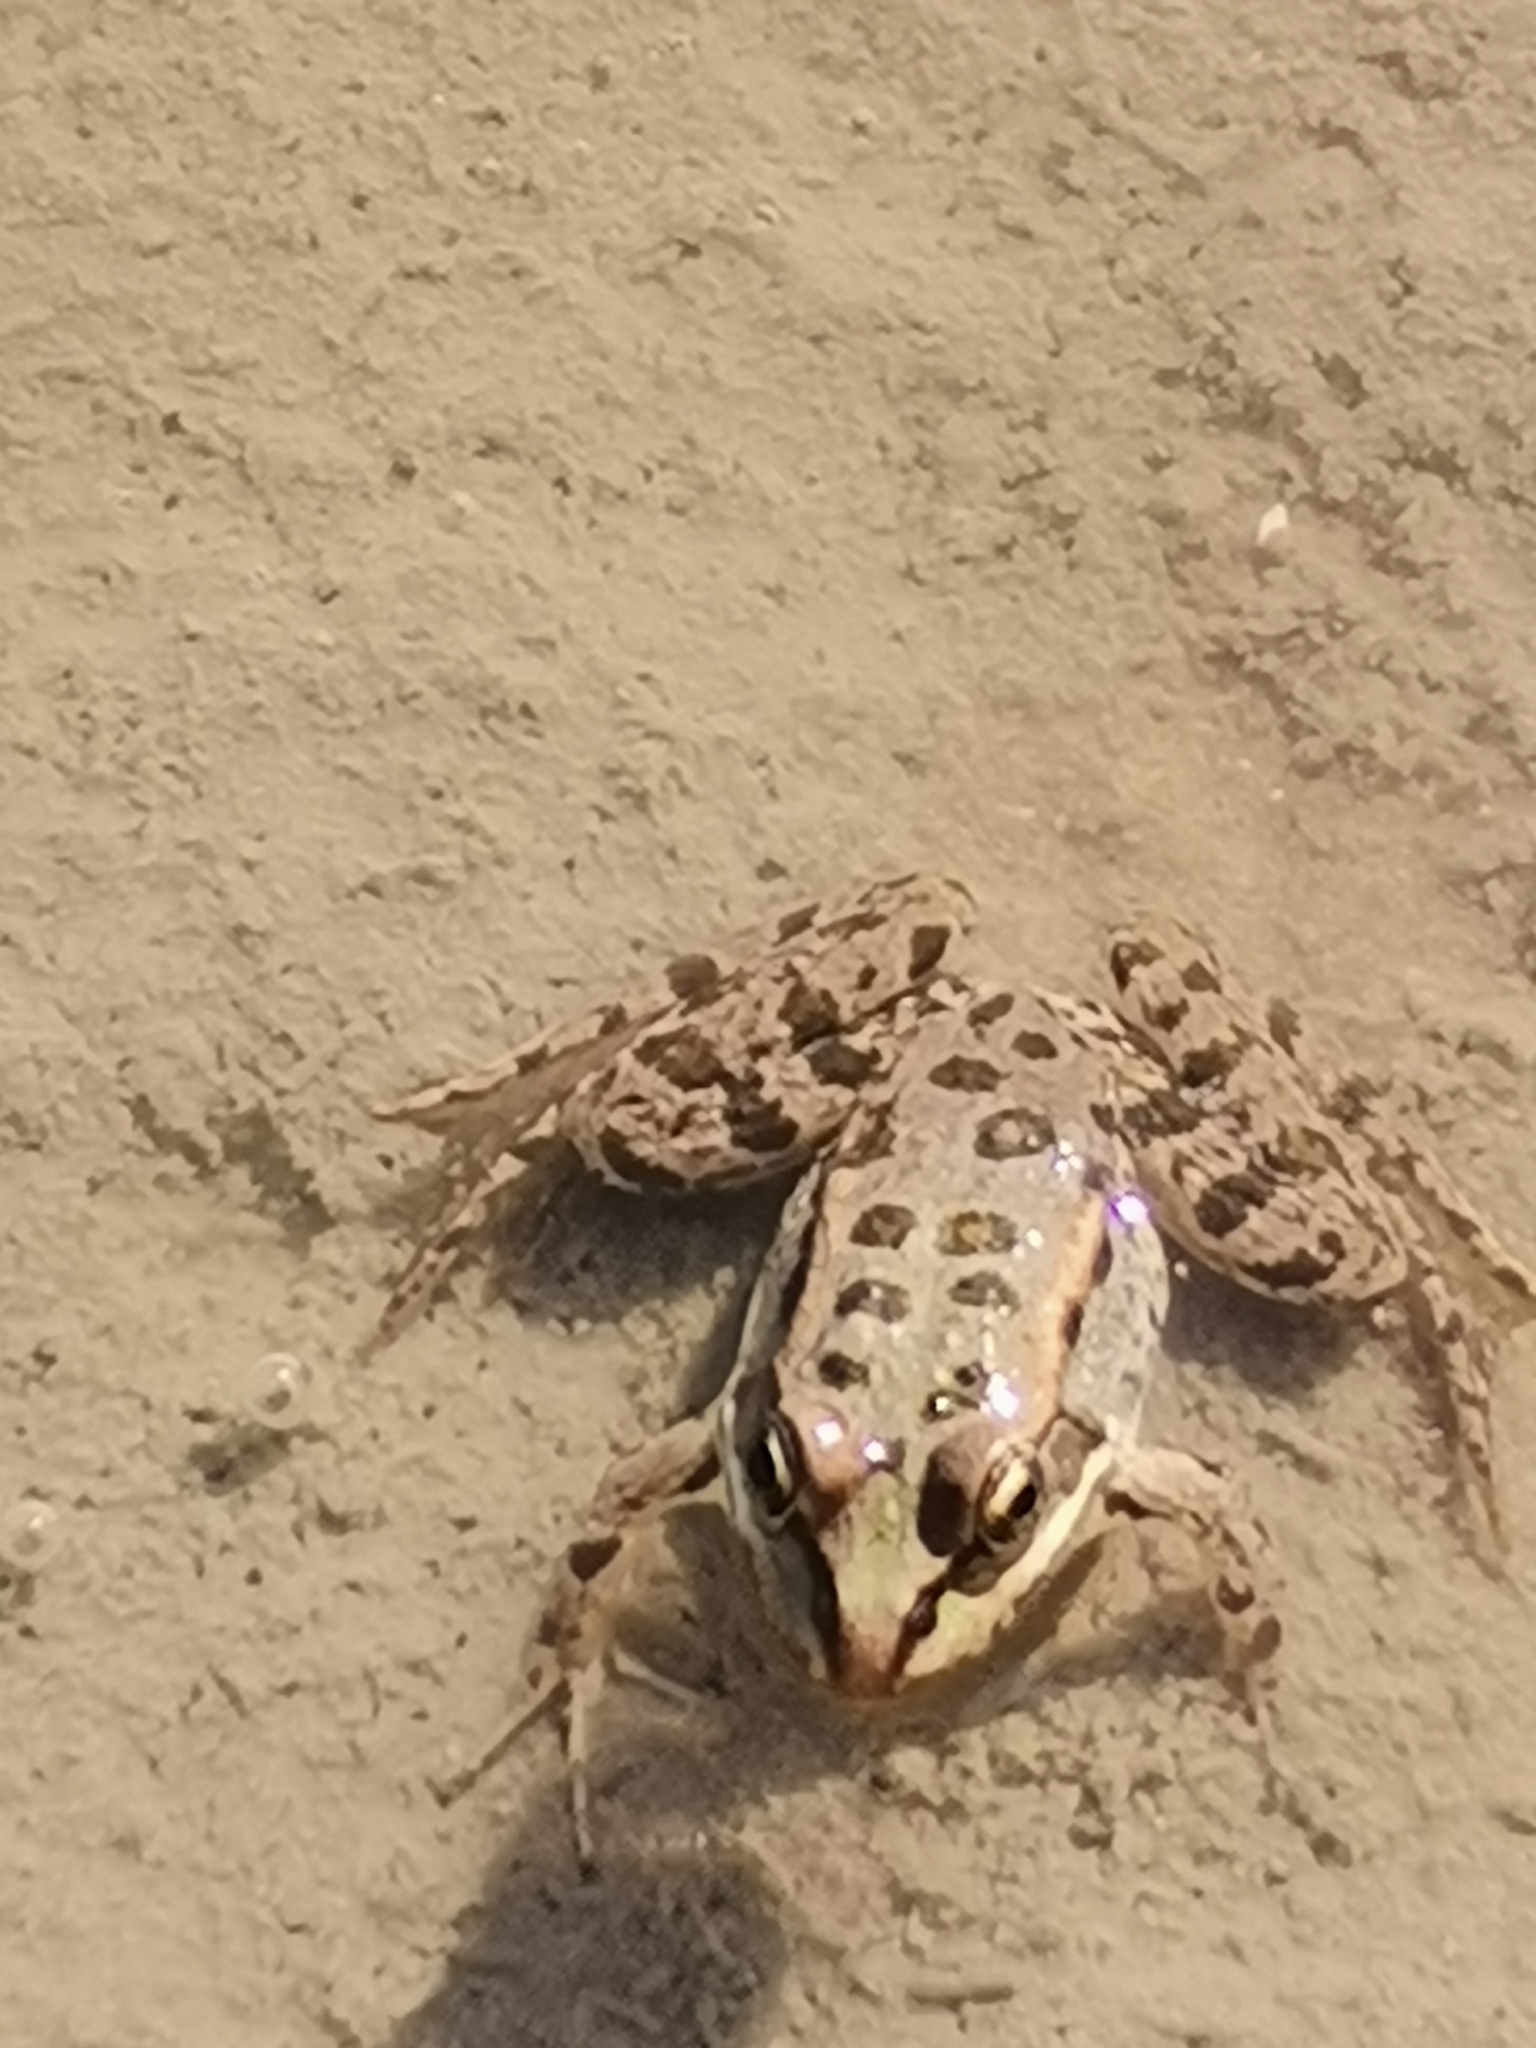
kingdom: Animalia
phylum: Chordata
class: Amphibia
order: Anura
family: Ranidae
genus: Pelophylax
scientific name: Pelophylax ridibundus
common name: Marsh frog
